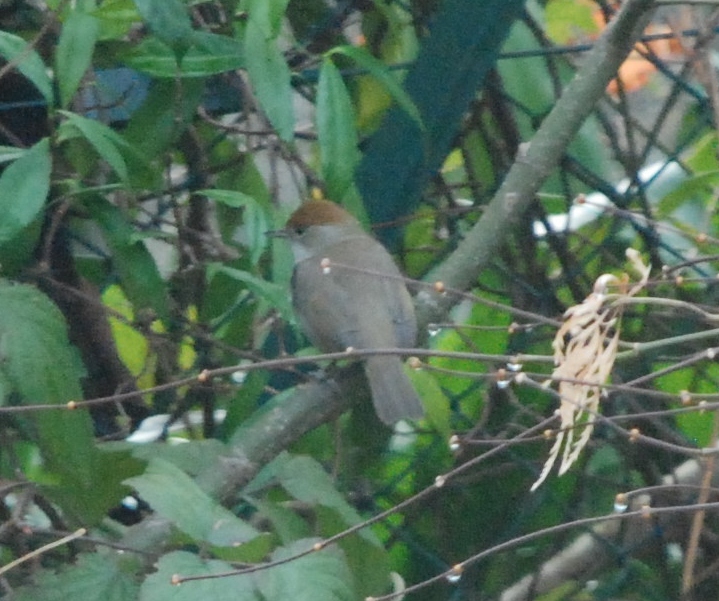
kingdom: Animalia
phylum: Chordata
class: Aves
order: Passeriformes
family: Sylviidae
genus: Sylvia
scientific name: Sylvia atricapilla
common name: Eurasian blackcap
